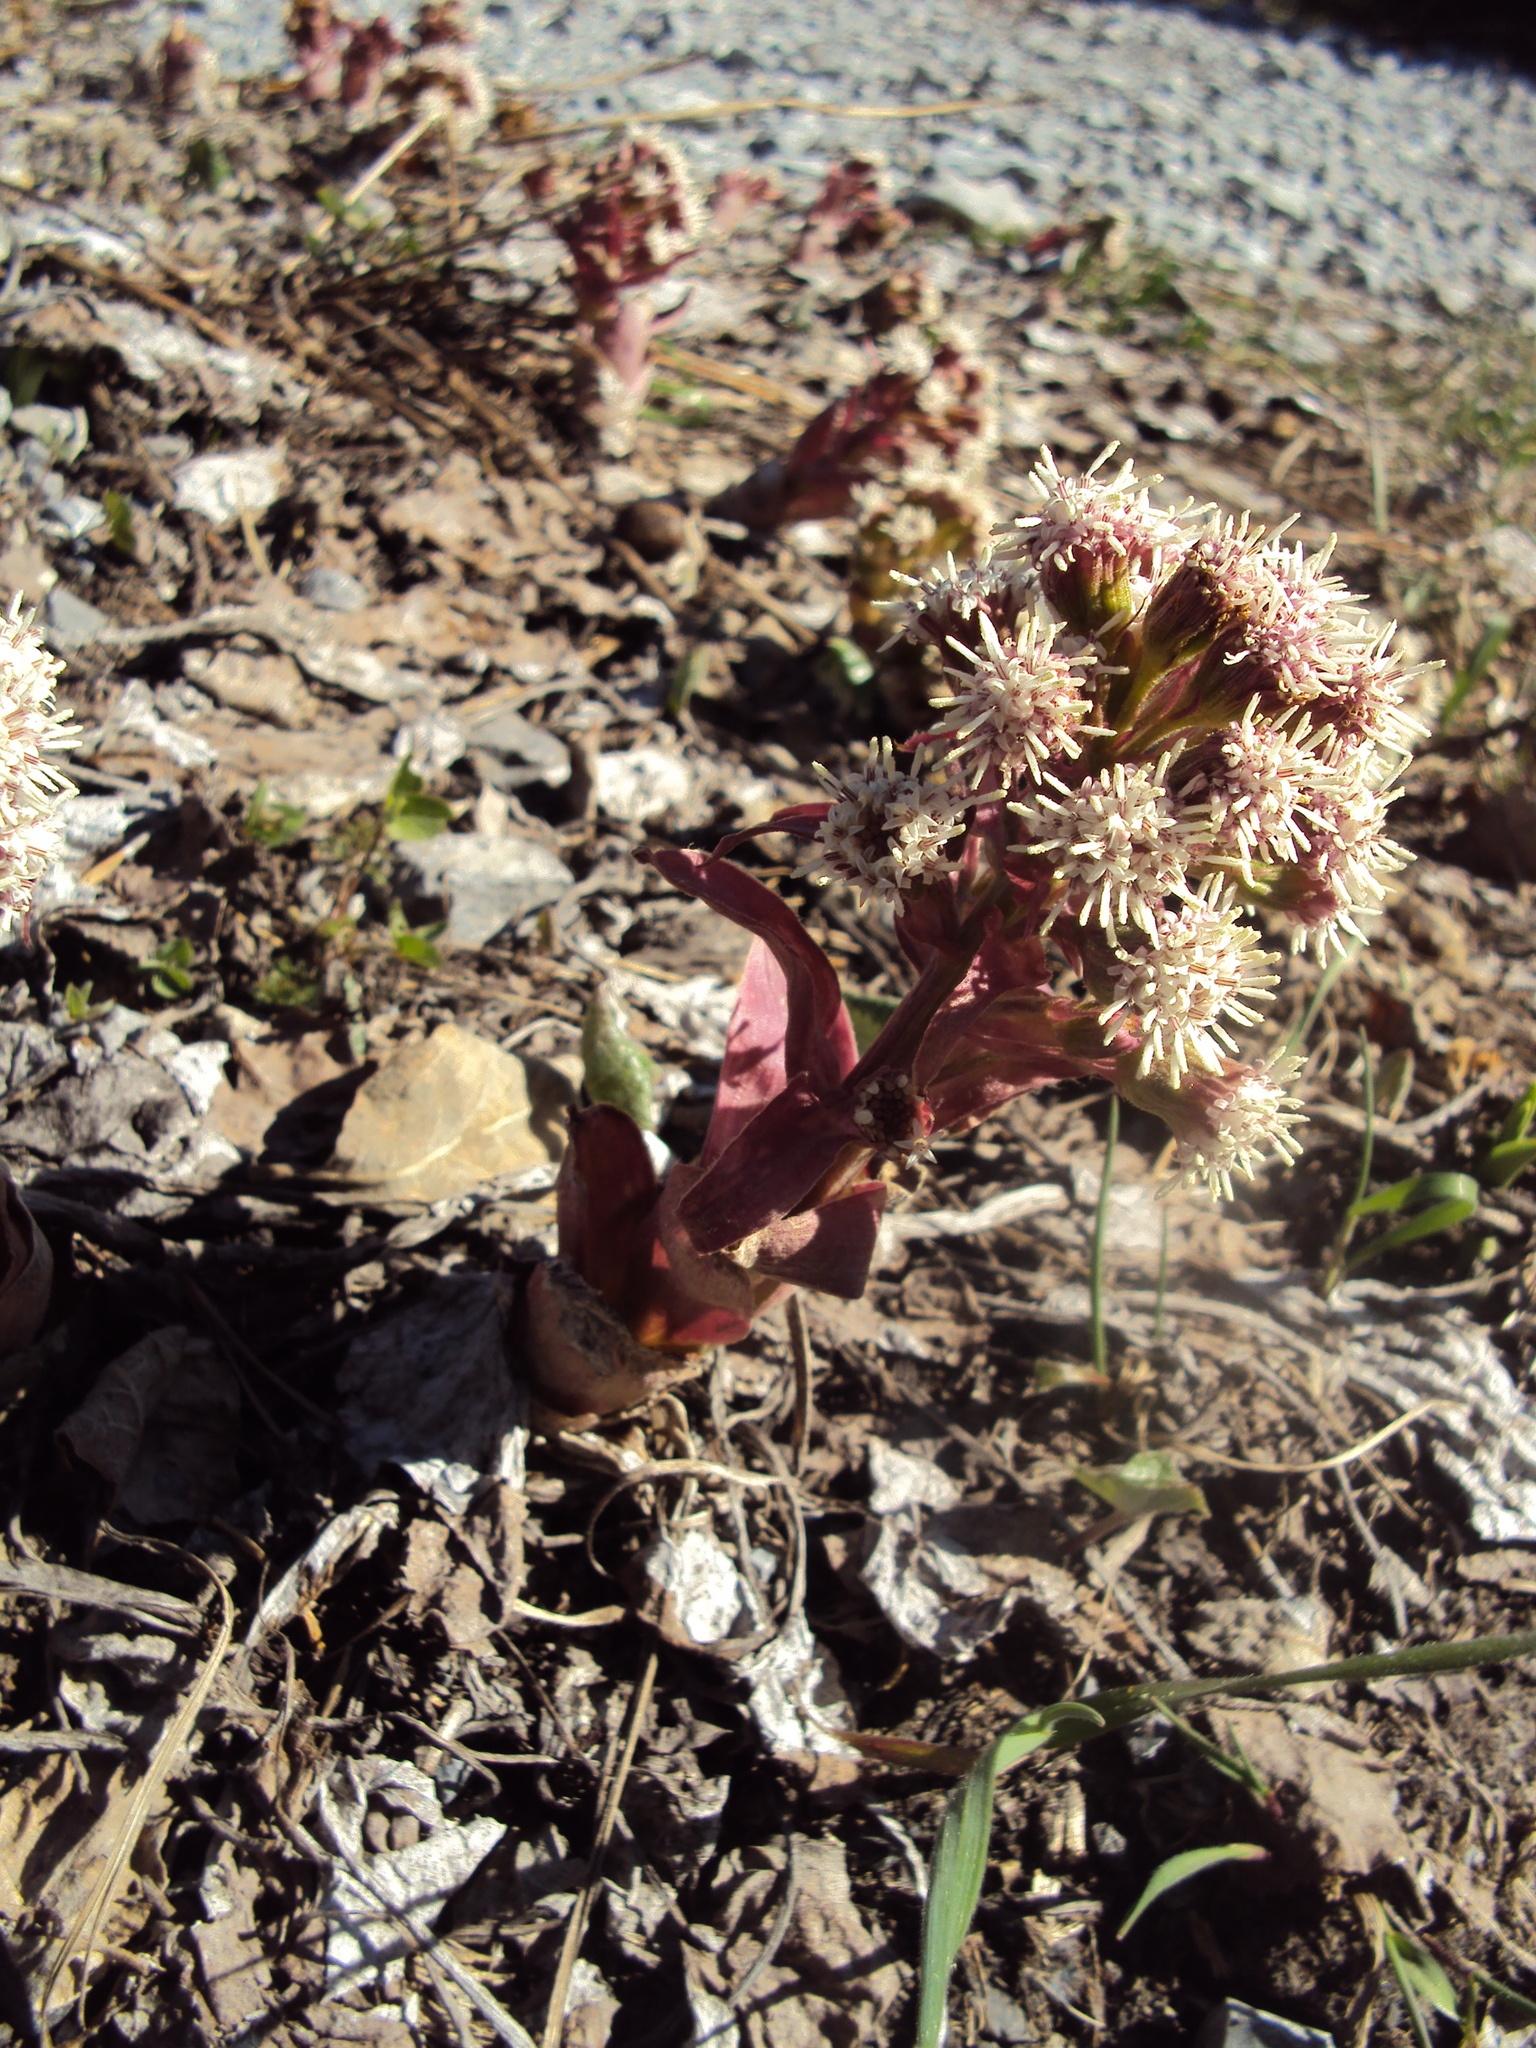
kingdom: Plantae
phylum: Tracheophyta
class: Magnoliopsida
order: Asterales
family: Asteraceae
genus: Petasites
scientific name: Petasites paradoxus
